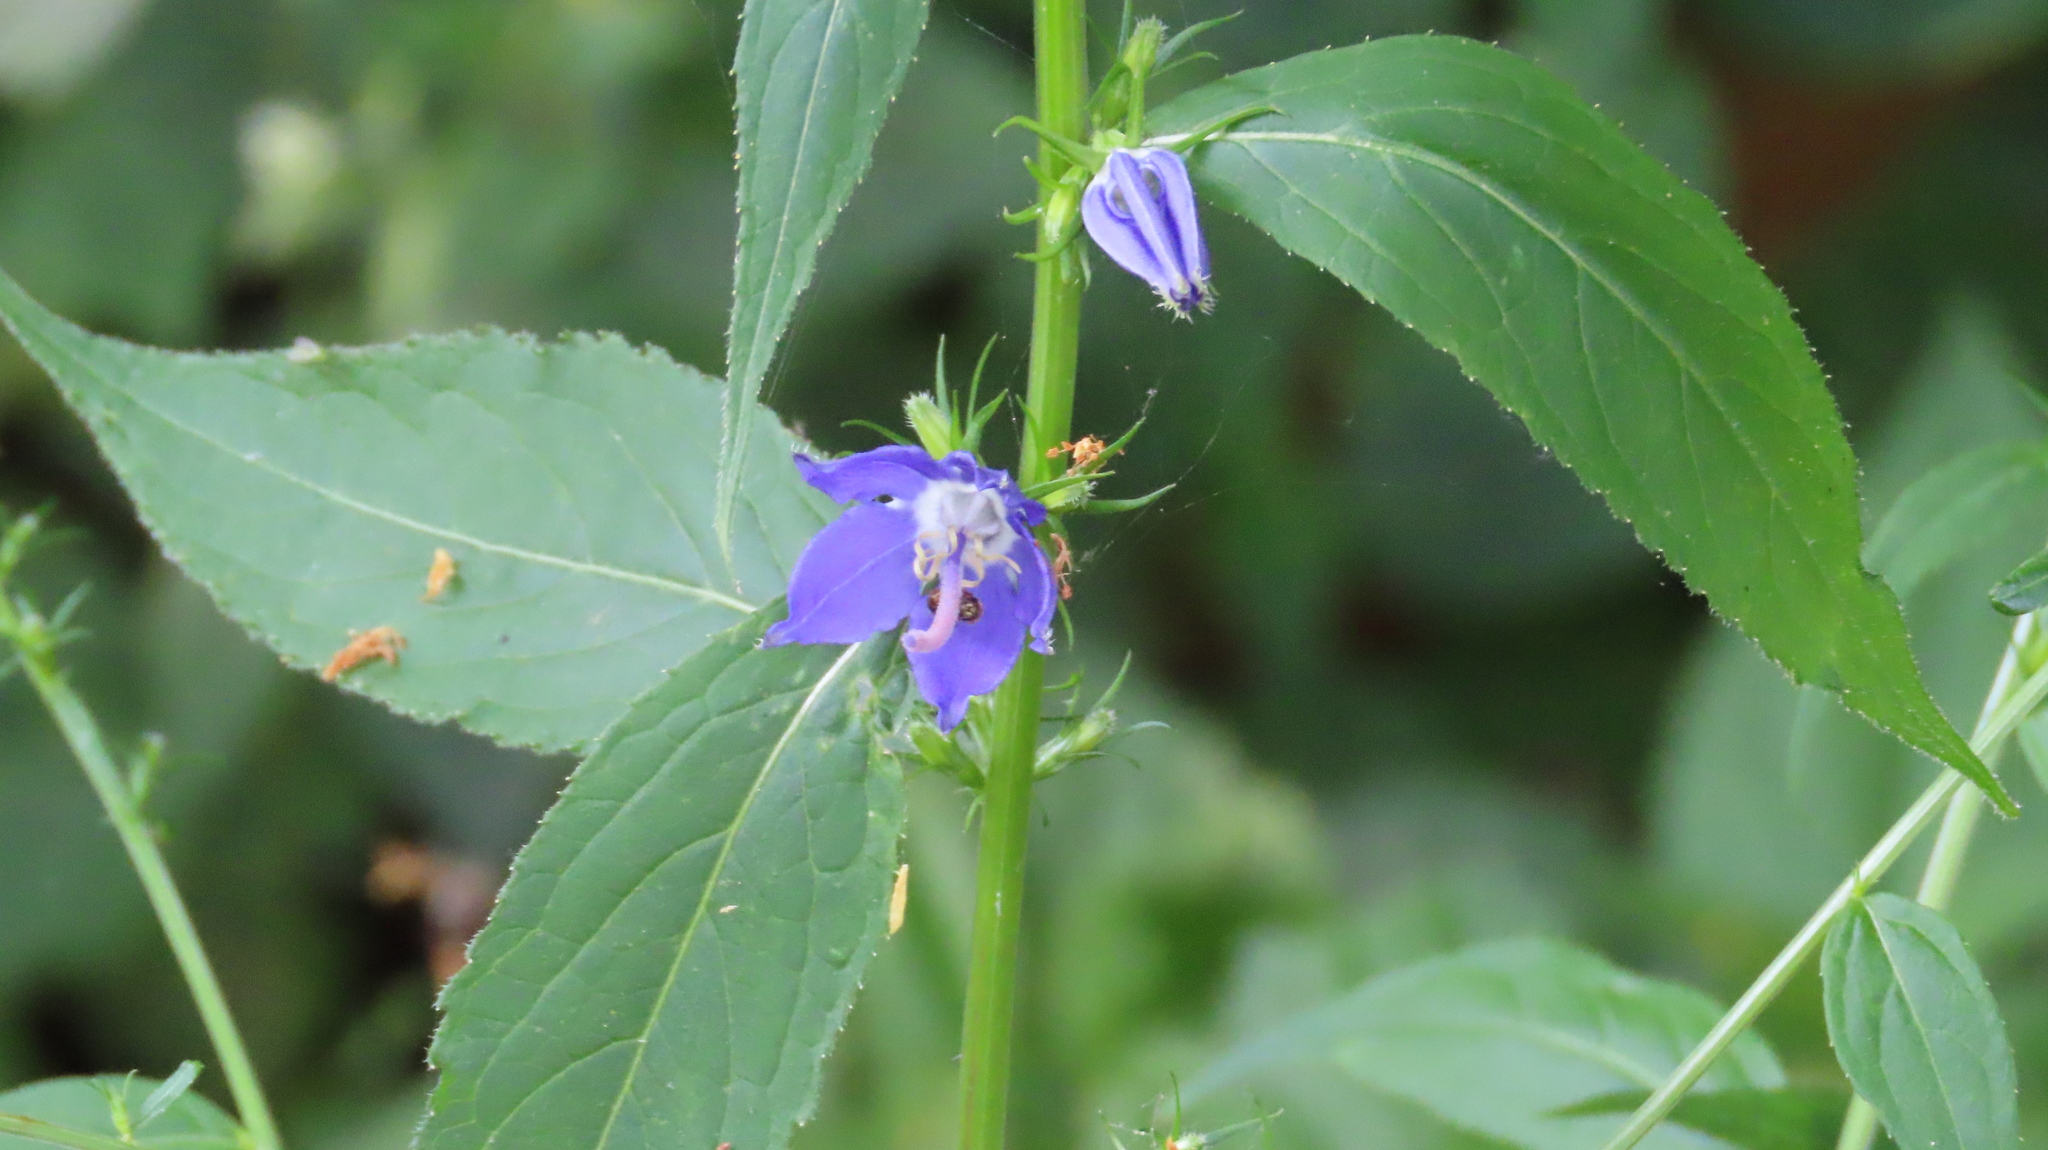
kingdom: Plantae
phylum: Tracheophyta
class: Magnoliopsida
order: Asterales
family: Campanulaceae
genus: Campanulastrum
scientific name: Campanulastrum americanum
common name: American bellflower
